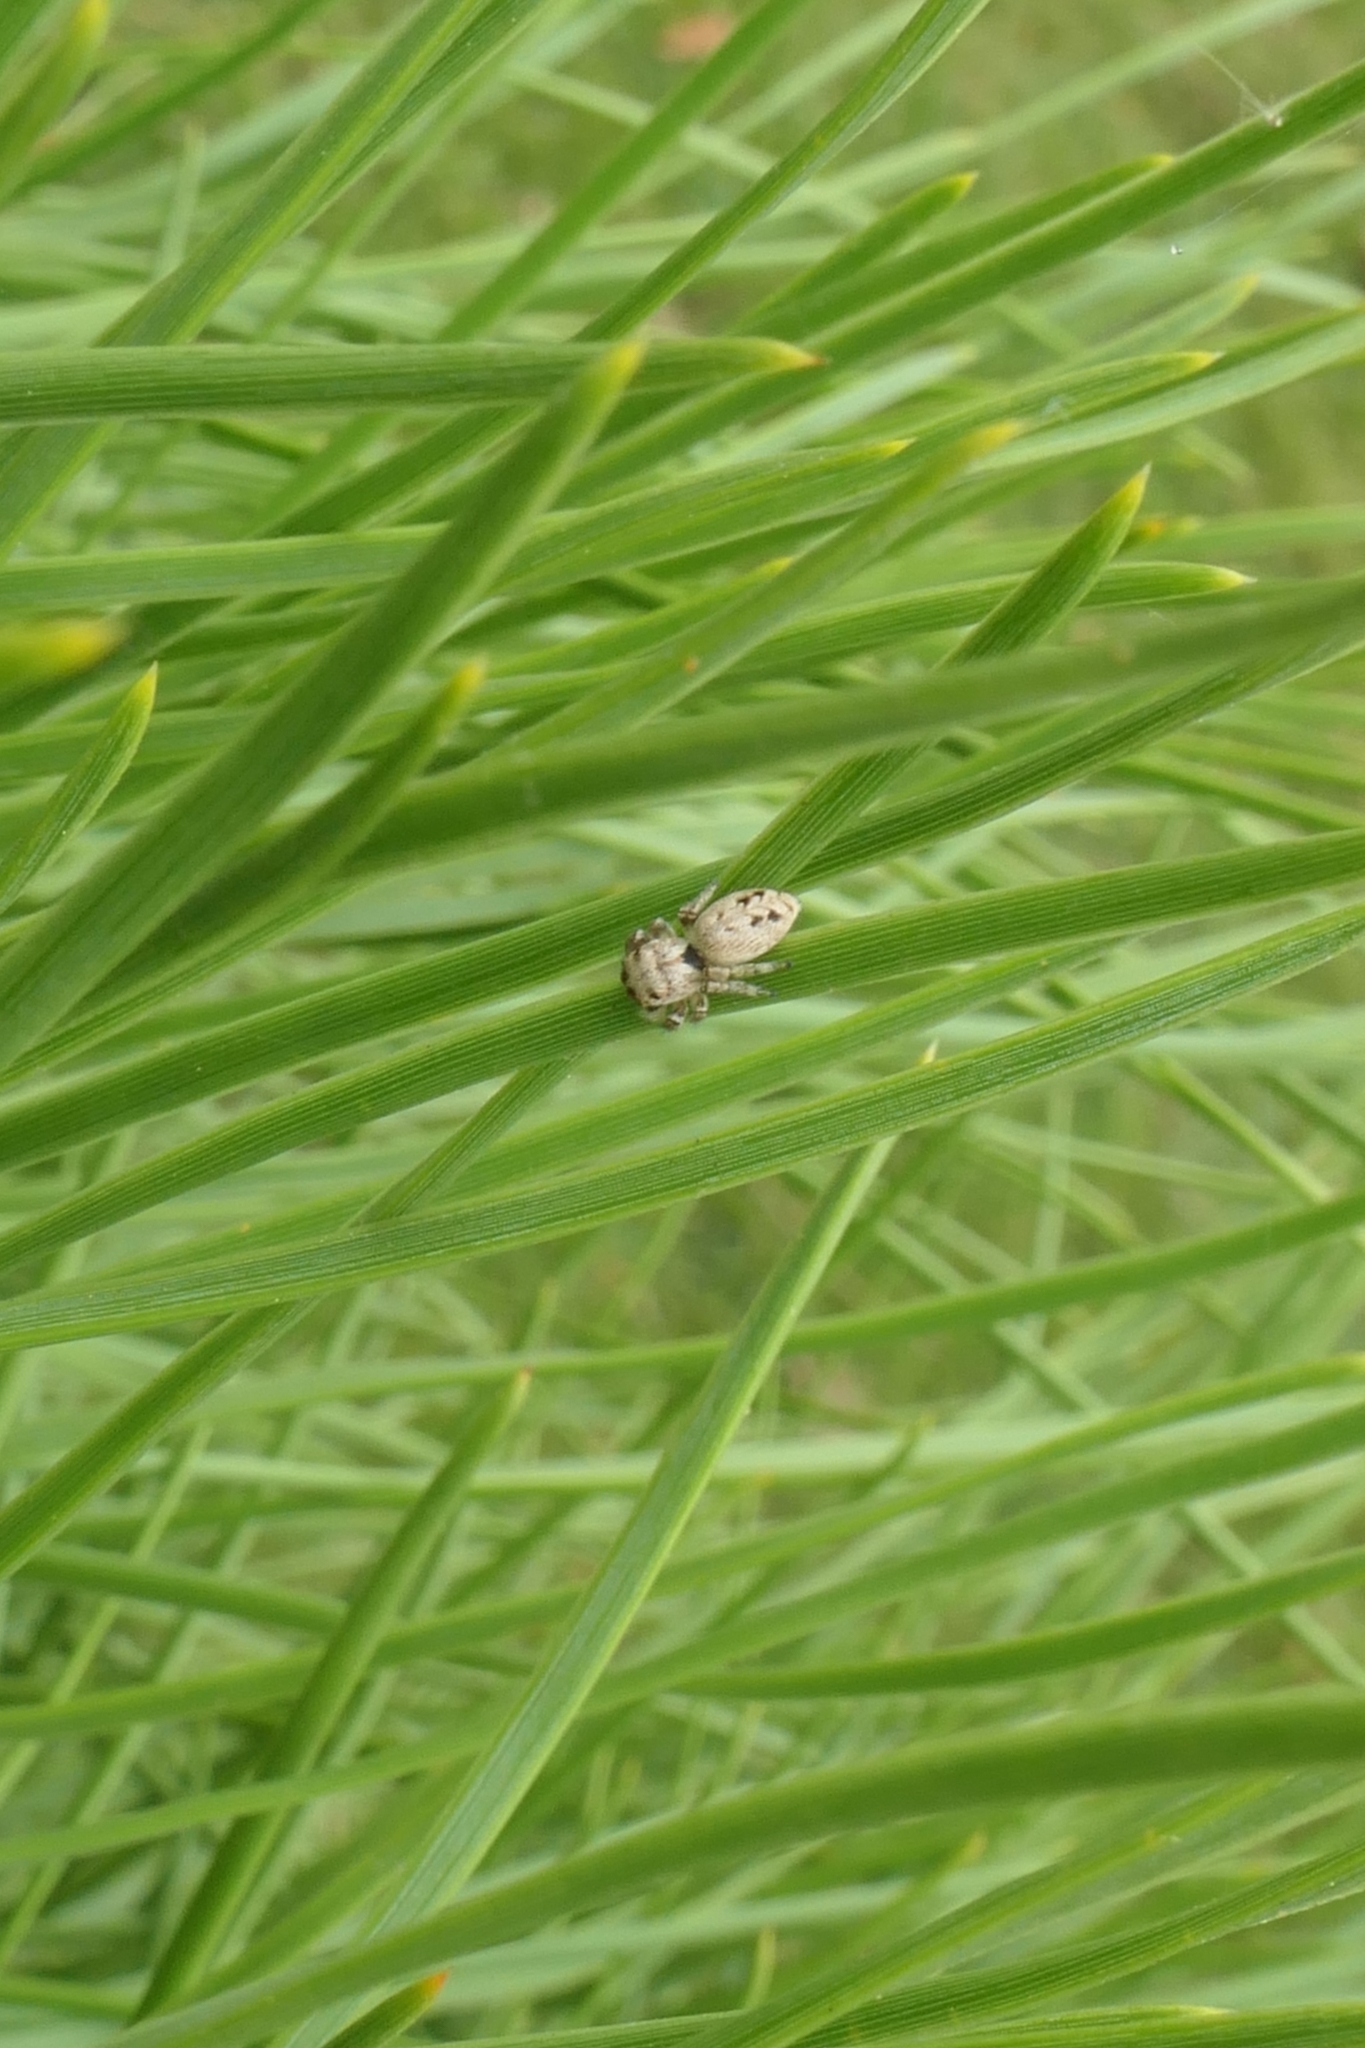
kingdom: Animalia
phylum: Arthropoda
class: Arachnida
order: Araneae
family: Salticidae
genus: Opisthoncus
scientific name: Opisthoncus polyphemus
